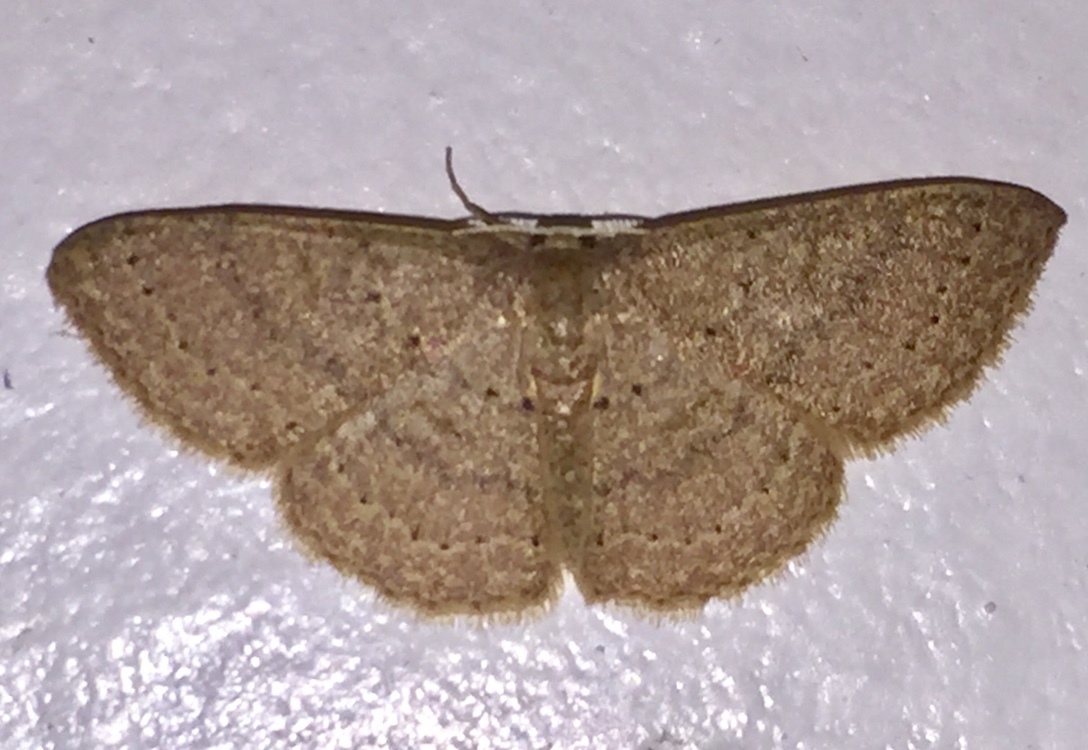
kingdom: Animalia
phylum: Arthropoda
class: Insecta
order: Lepidoptera
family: Geometridae
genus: Pleuroprucha
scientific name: Pleuroprucha insulsaria
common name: Common tan wave
